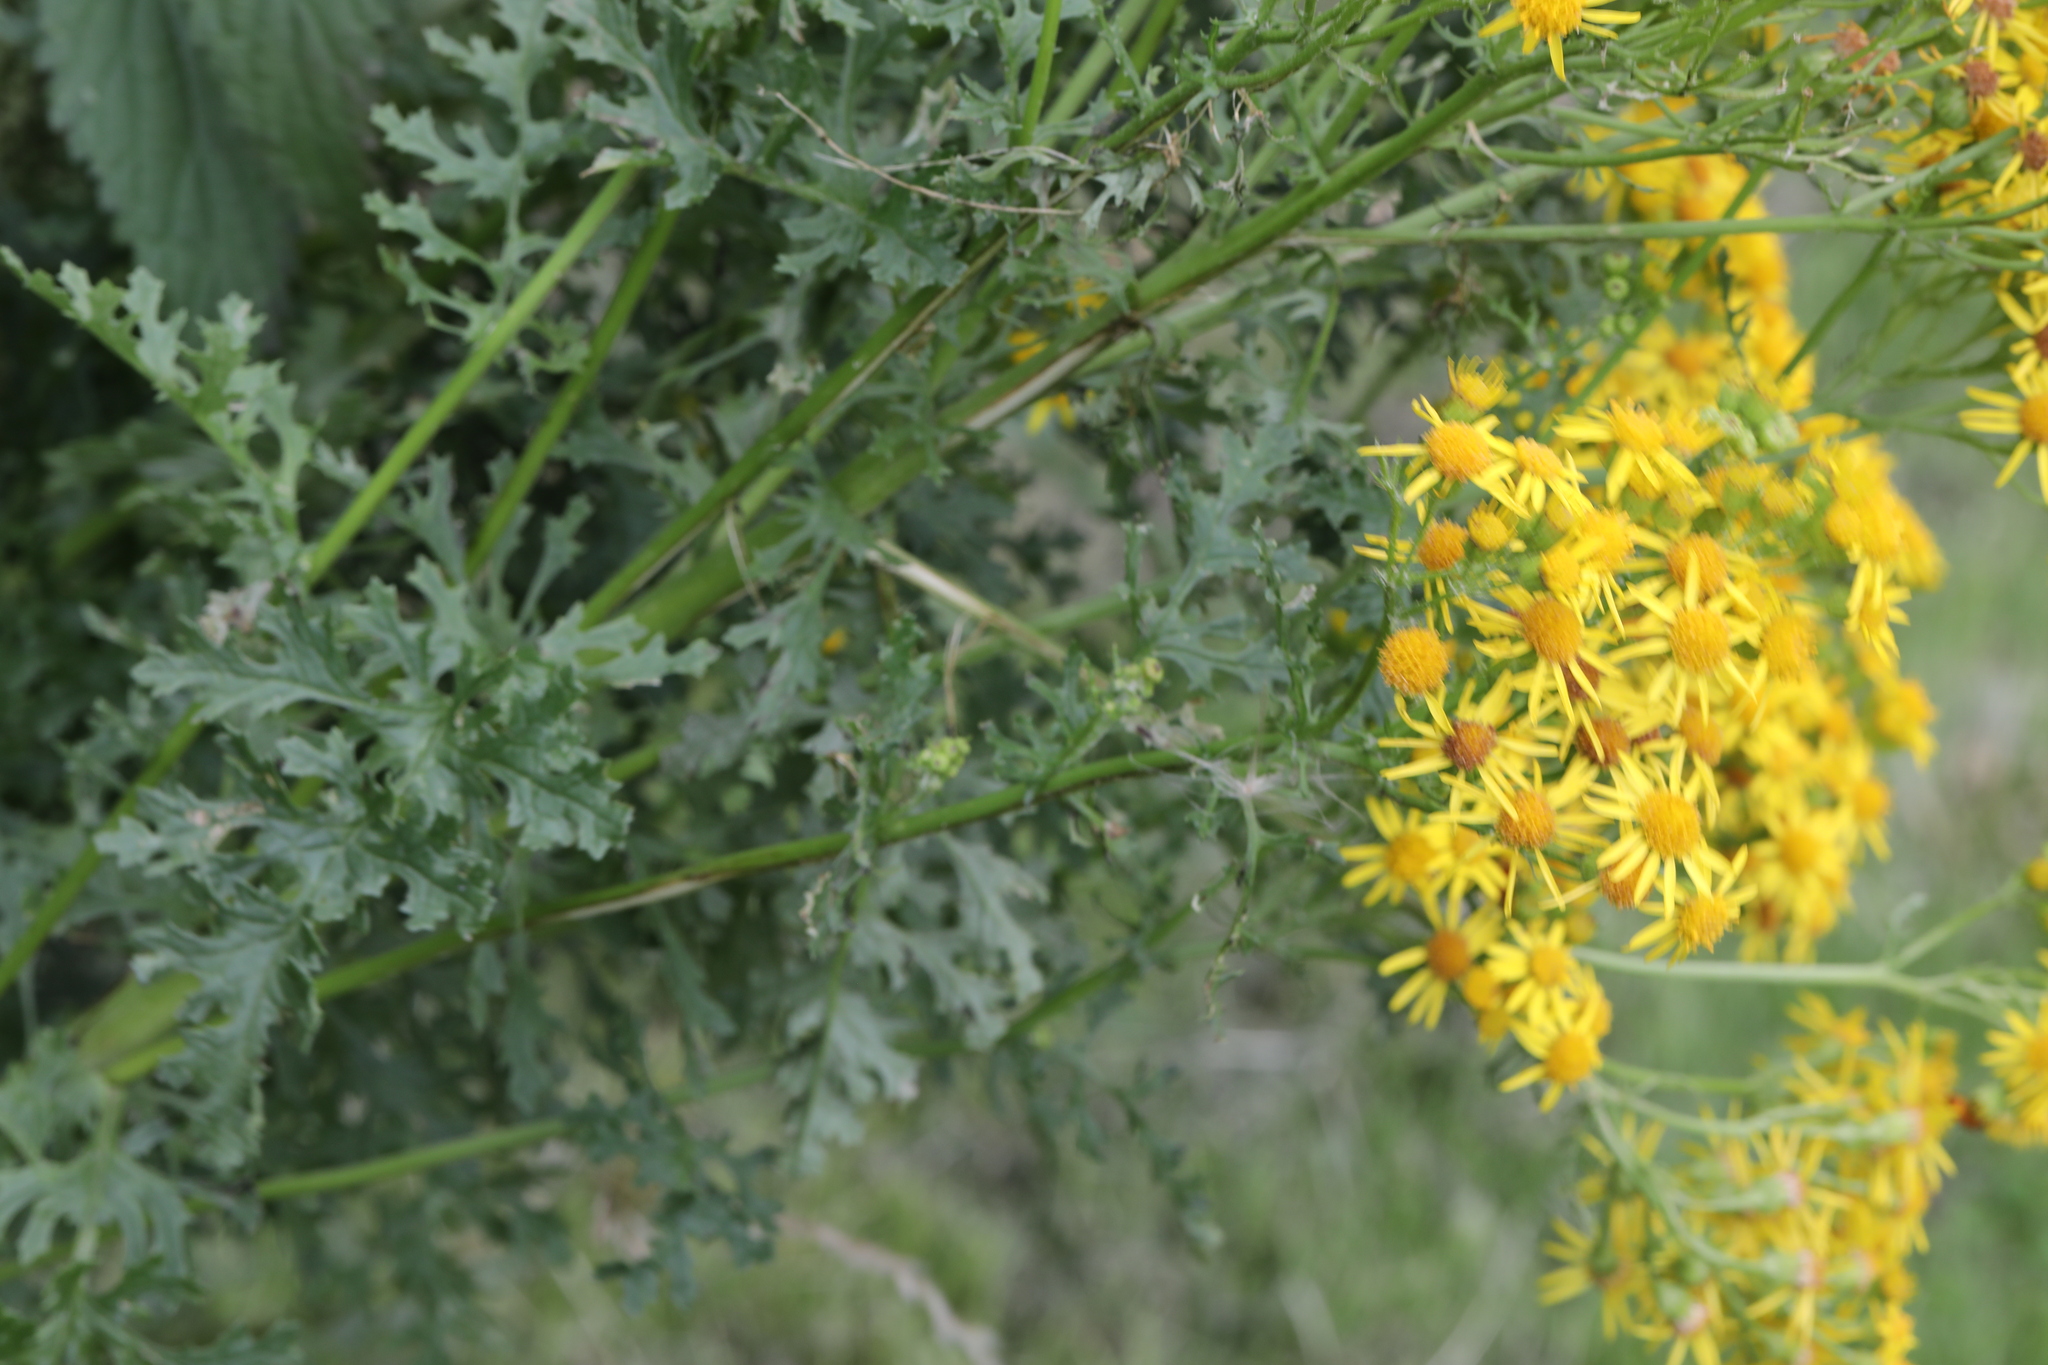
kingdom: Plantae
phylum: Tracheophyta
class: Magnoliopsida
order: Asterales
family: Asteraceae
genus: Jacobaea
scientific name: Jacobaea vulgaris
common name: Stinking willie
